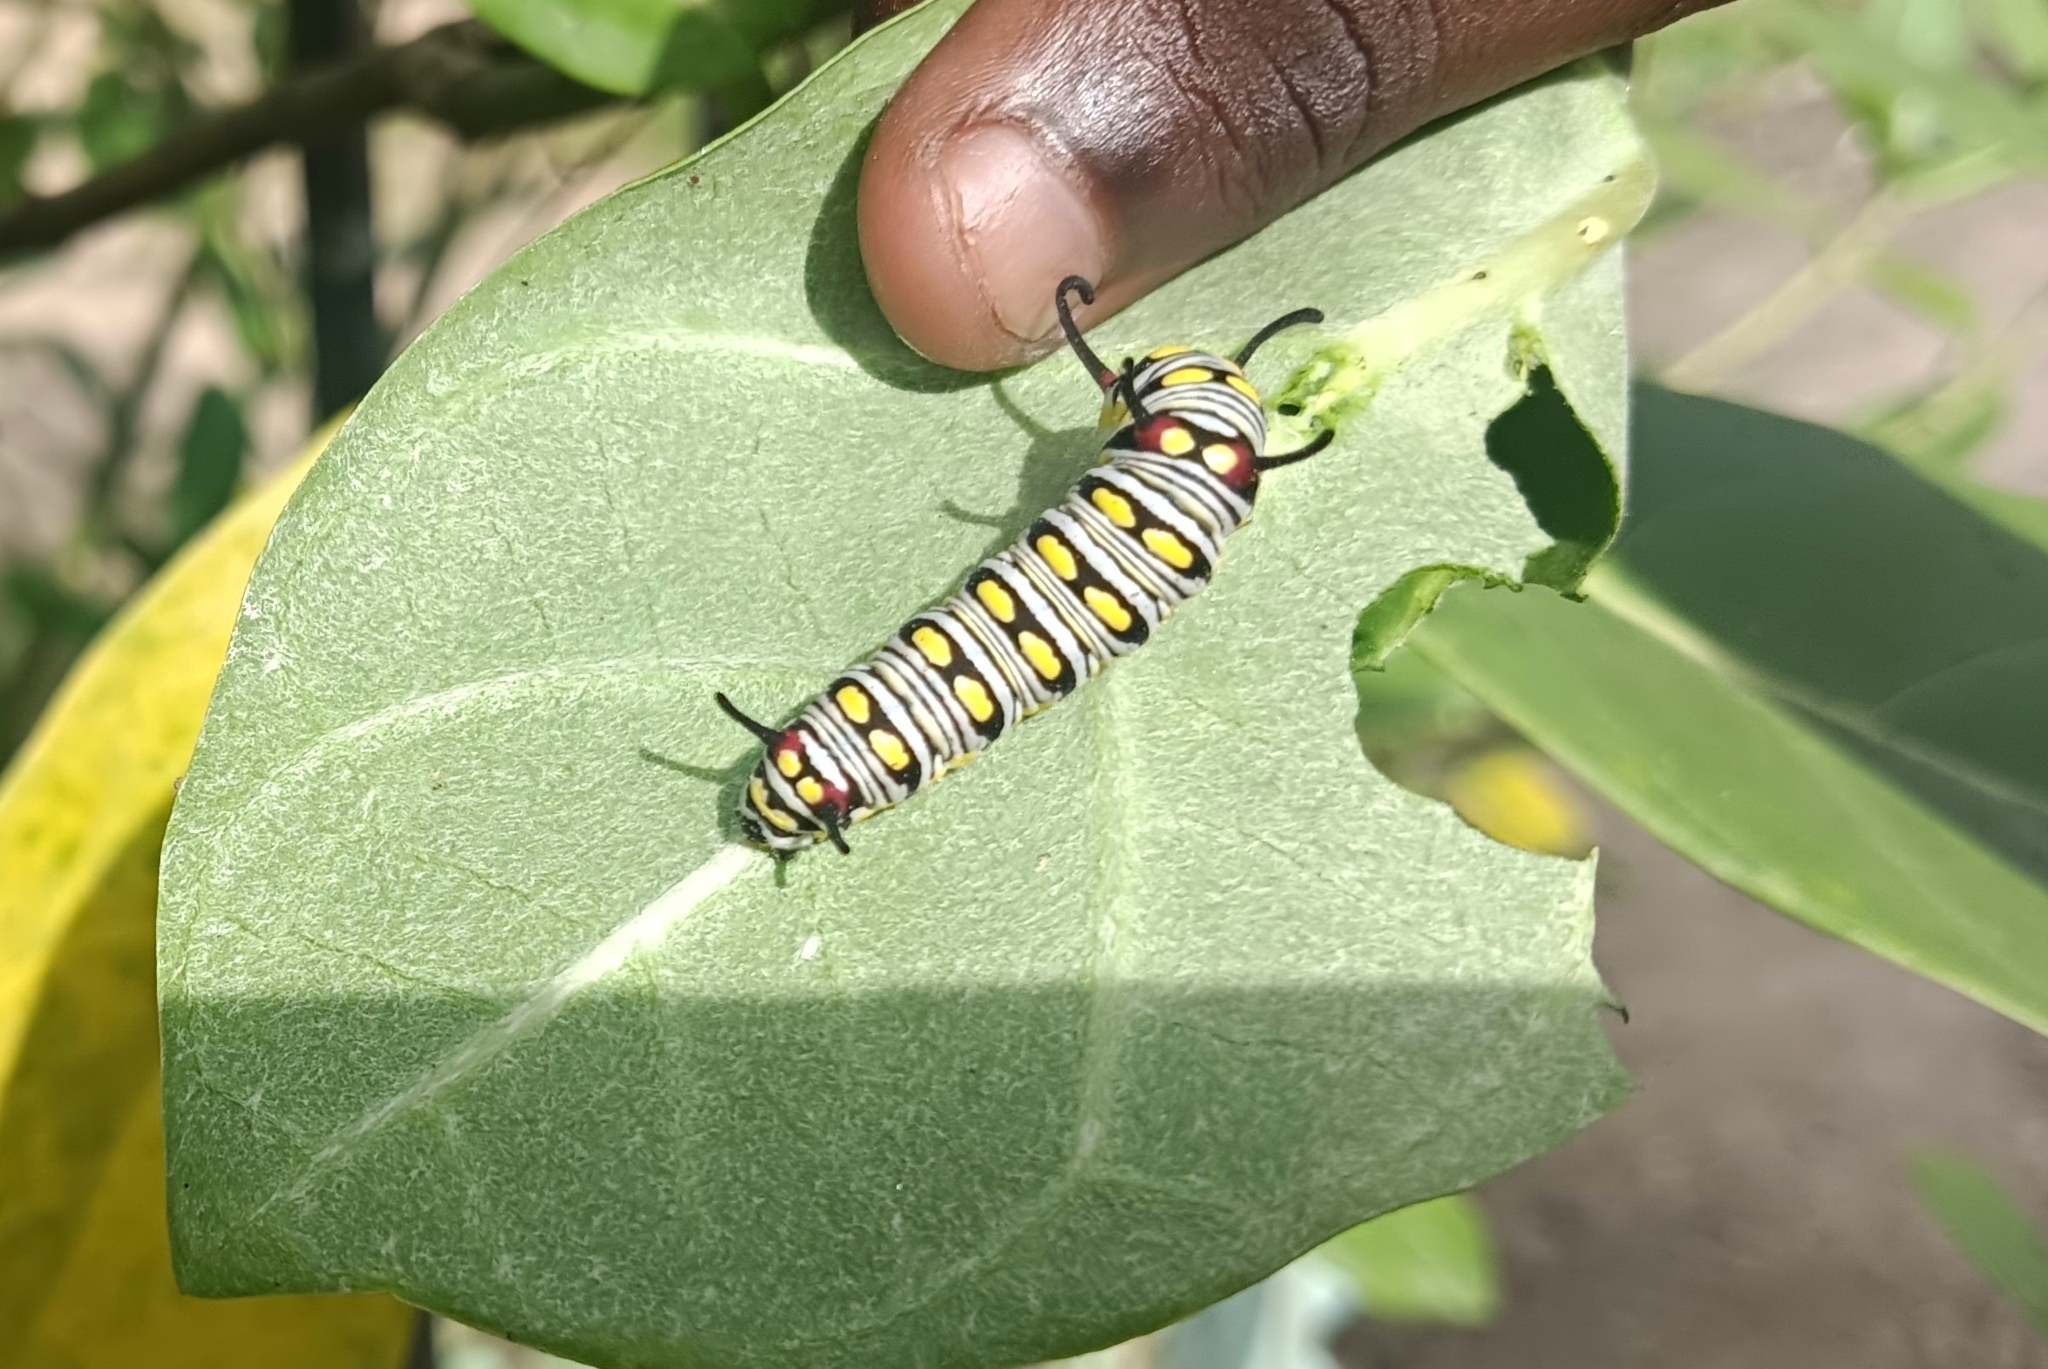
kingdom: Animalia
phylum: Arthropoda
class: Insecta
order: Lepidoptera
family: Nymphalidae
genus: Danaus
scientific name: Danaus chrysippus
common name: Plain tiger
